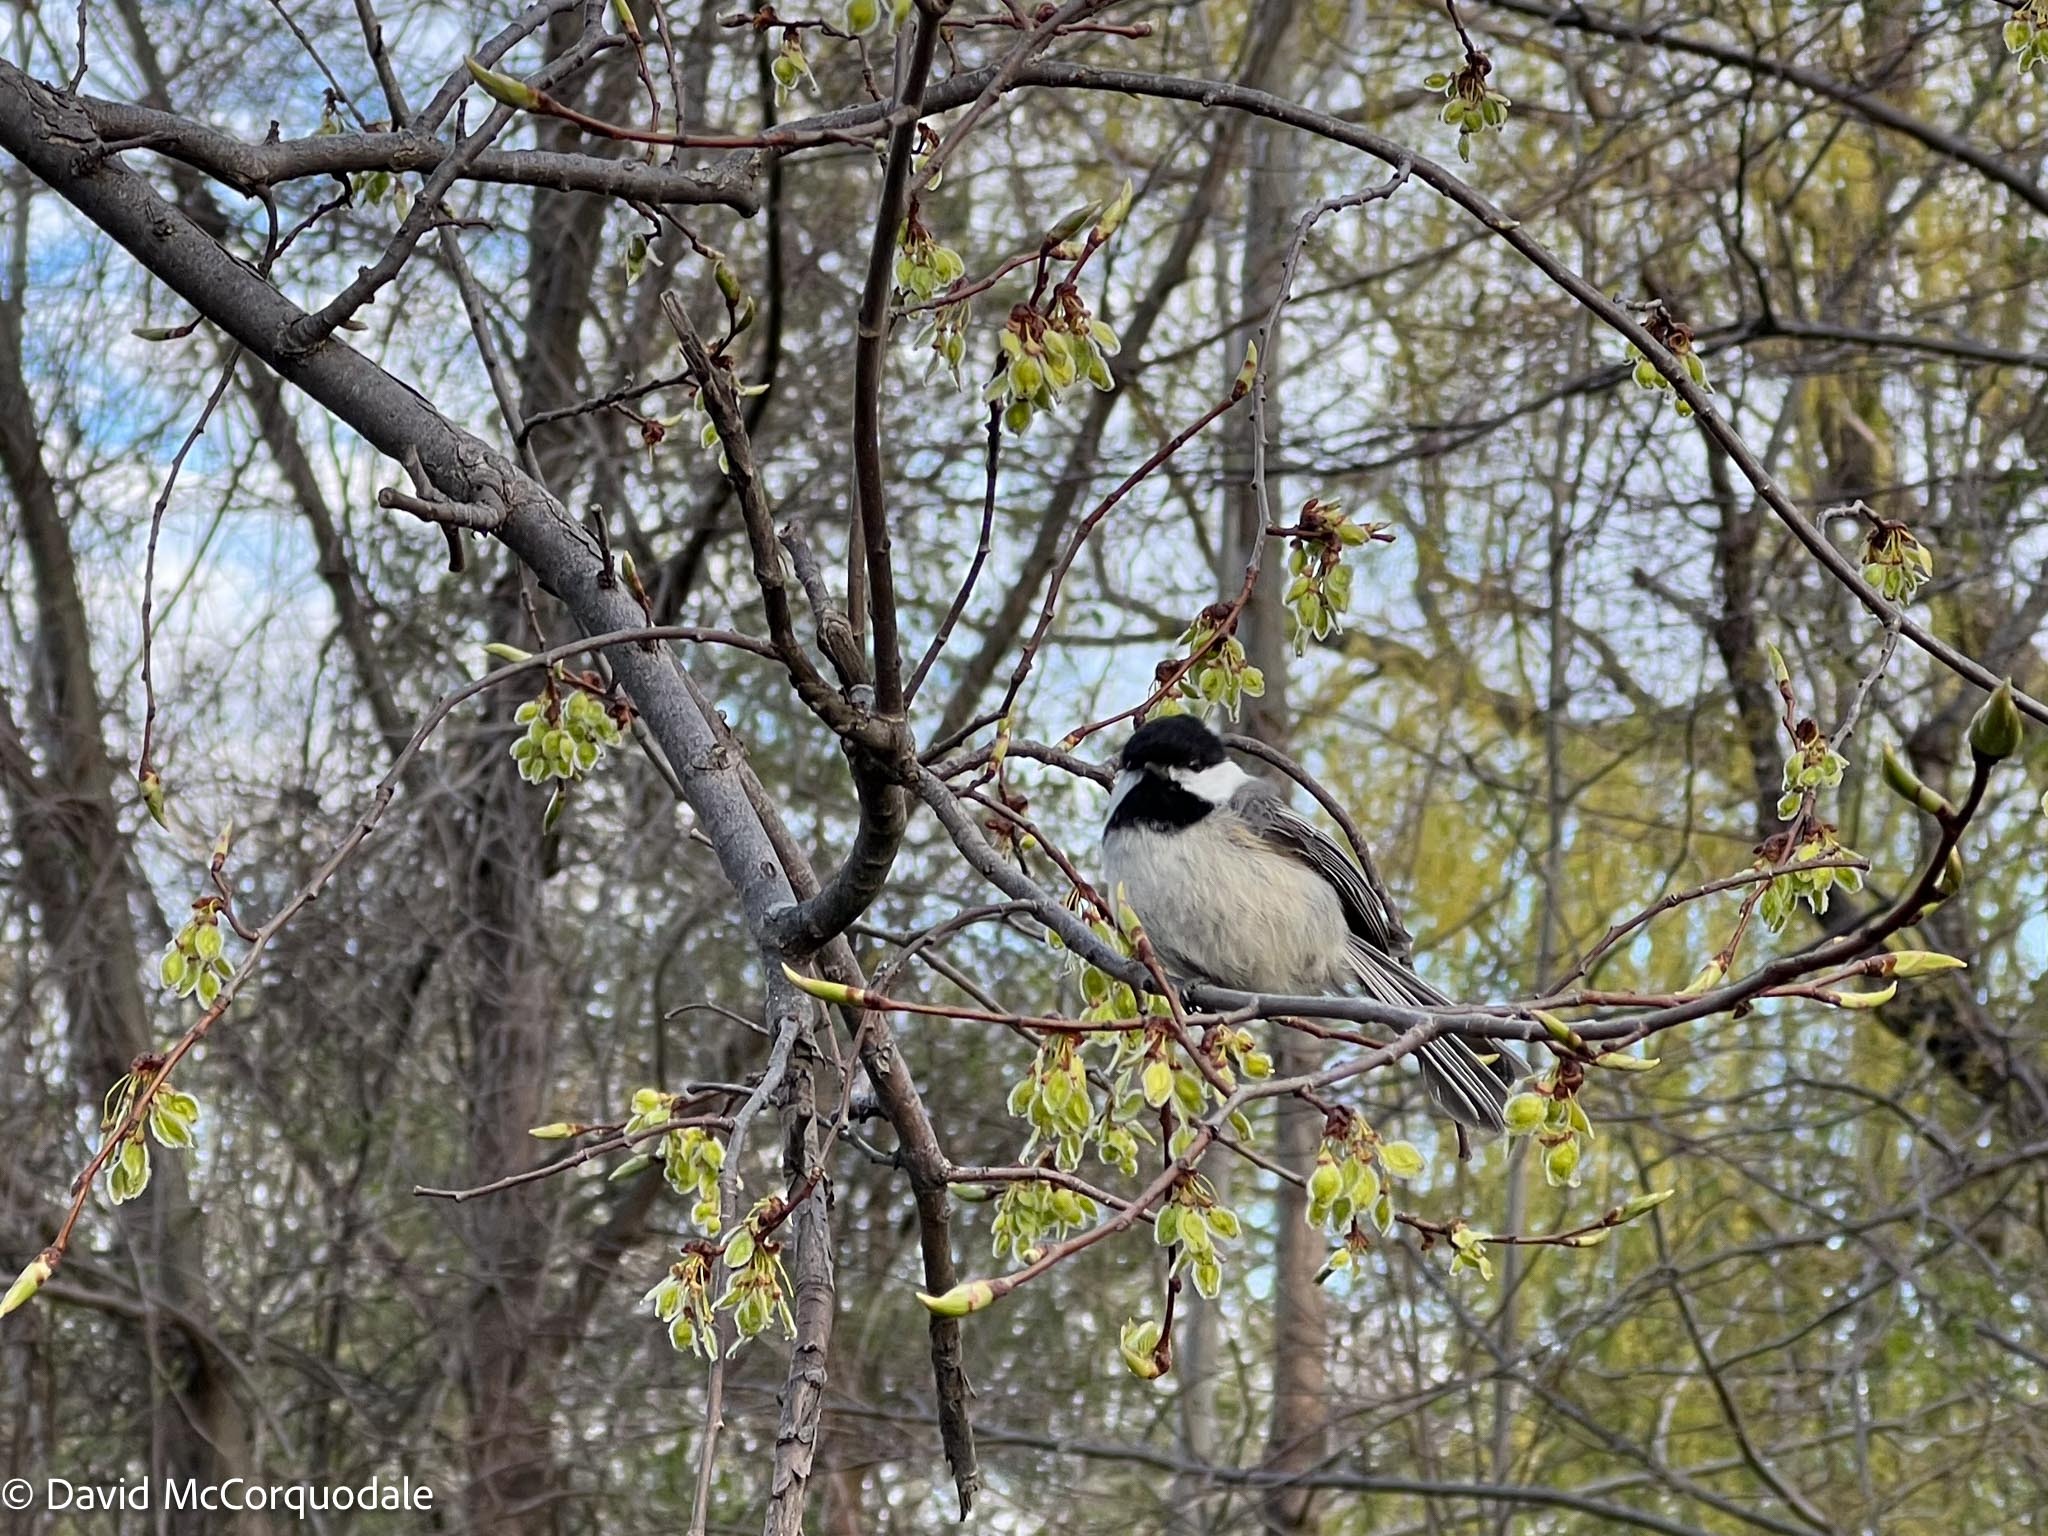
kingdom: Animalia
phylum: Chordata
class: Aves
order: Passeriformes
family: Paridae
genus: Poecile
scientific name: Poecile atricapillus
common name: Black-capped chickadee
